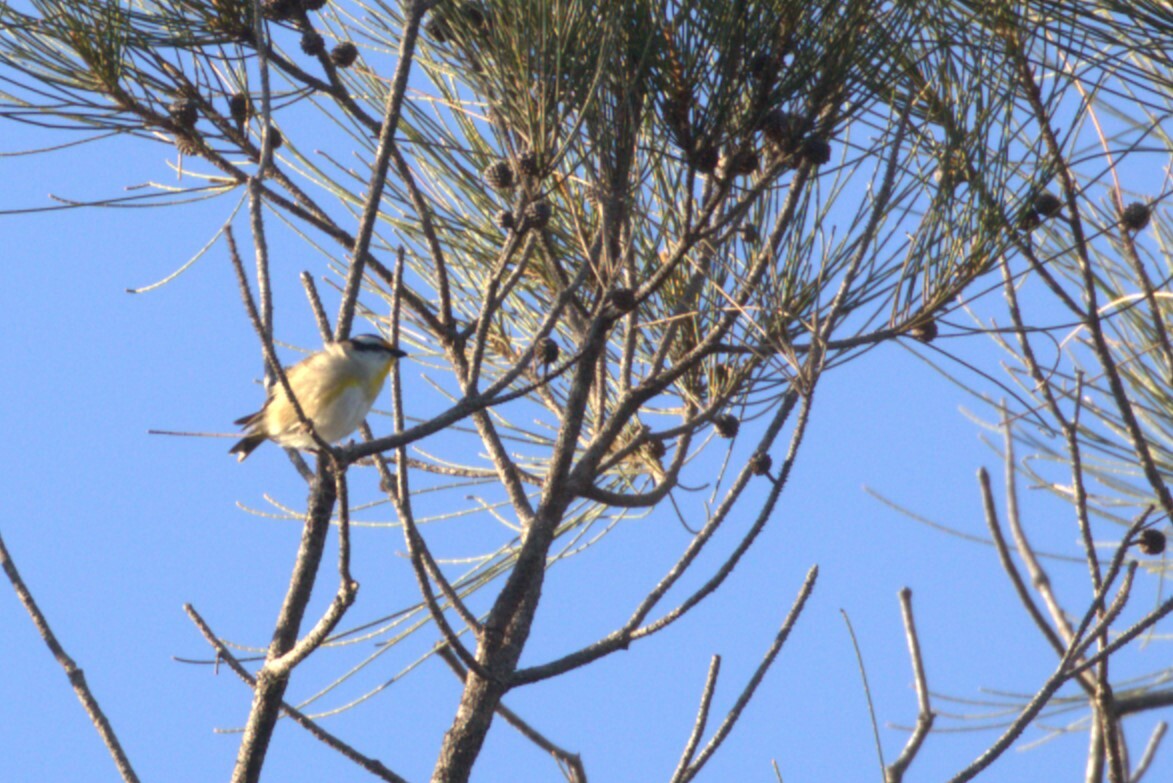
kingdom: Animalia
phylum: Chordata
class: Aves
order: Passeriformes
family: Pardalotidae
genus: Pardalotus
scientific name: Pardalotus striatus
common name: Striated pardalote
